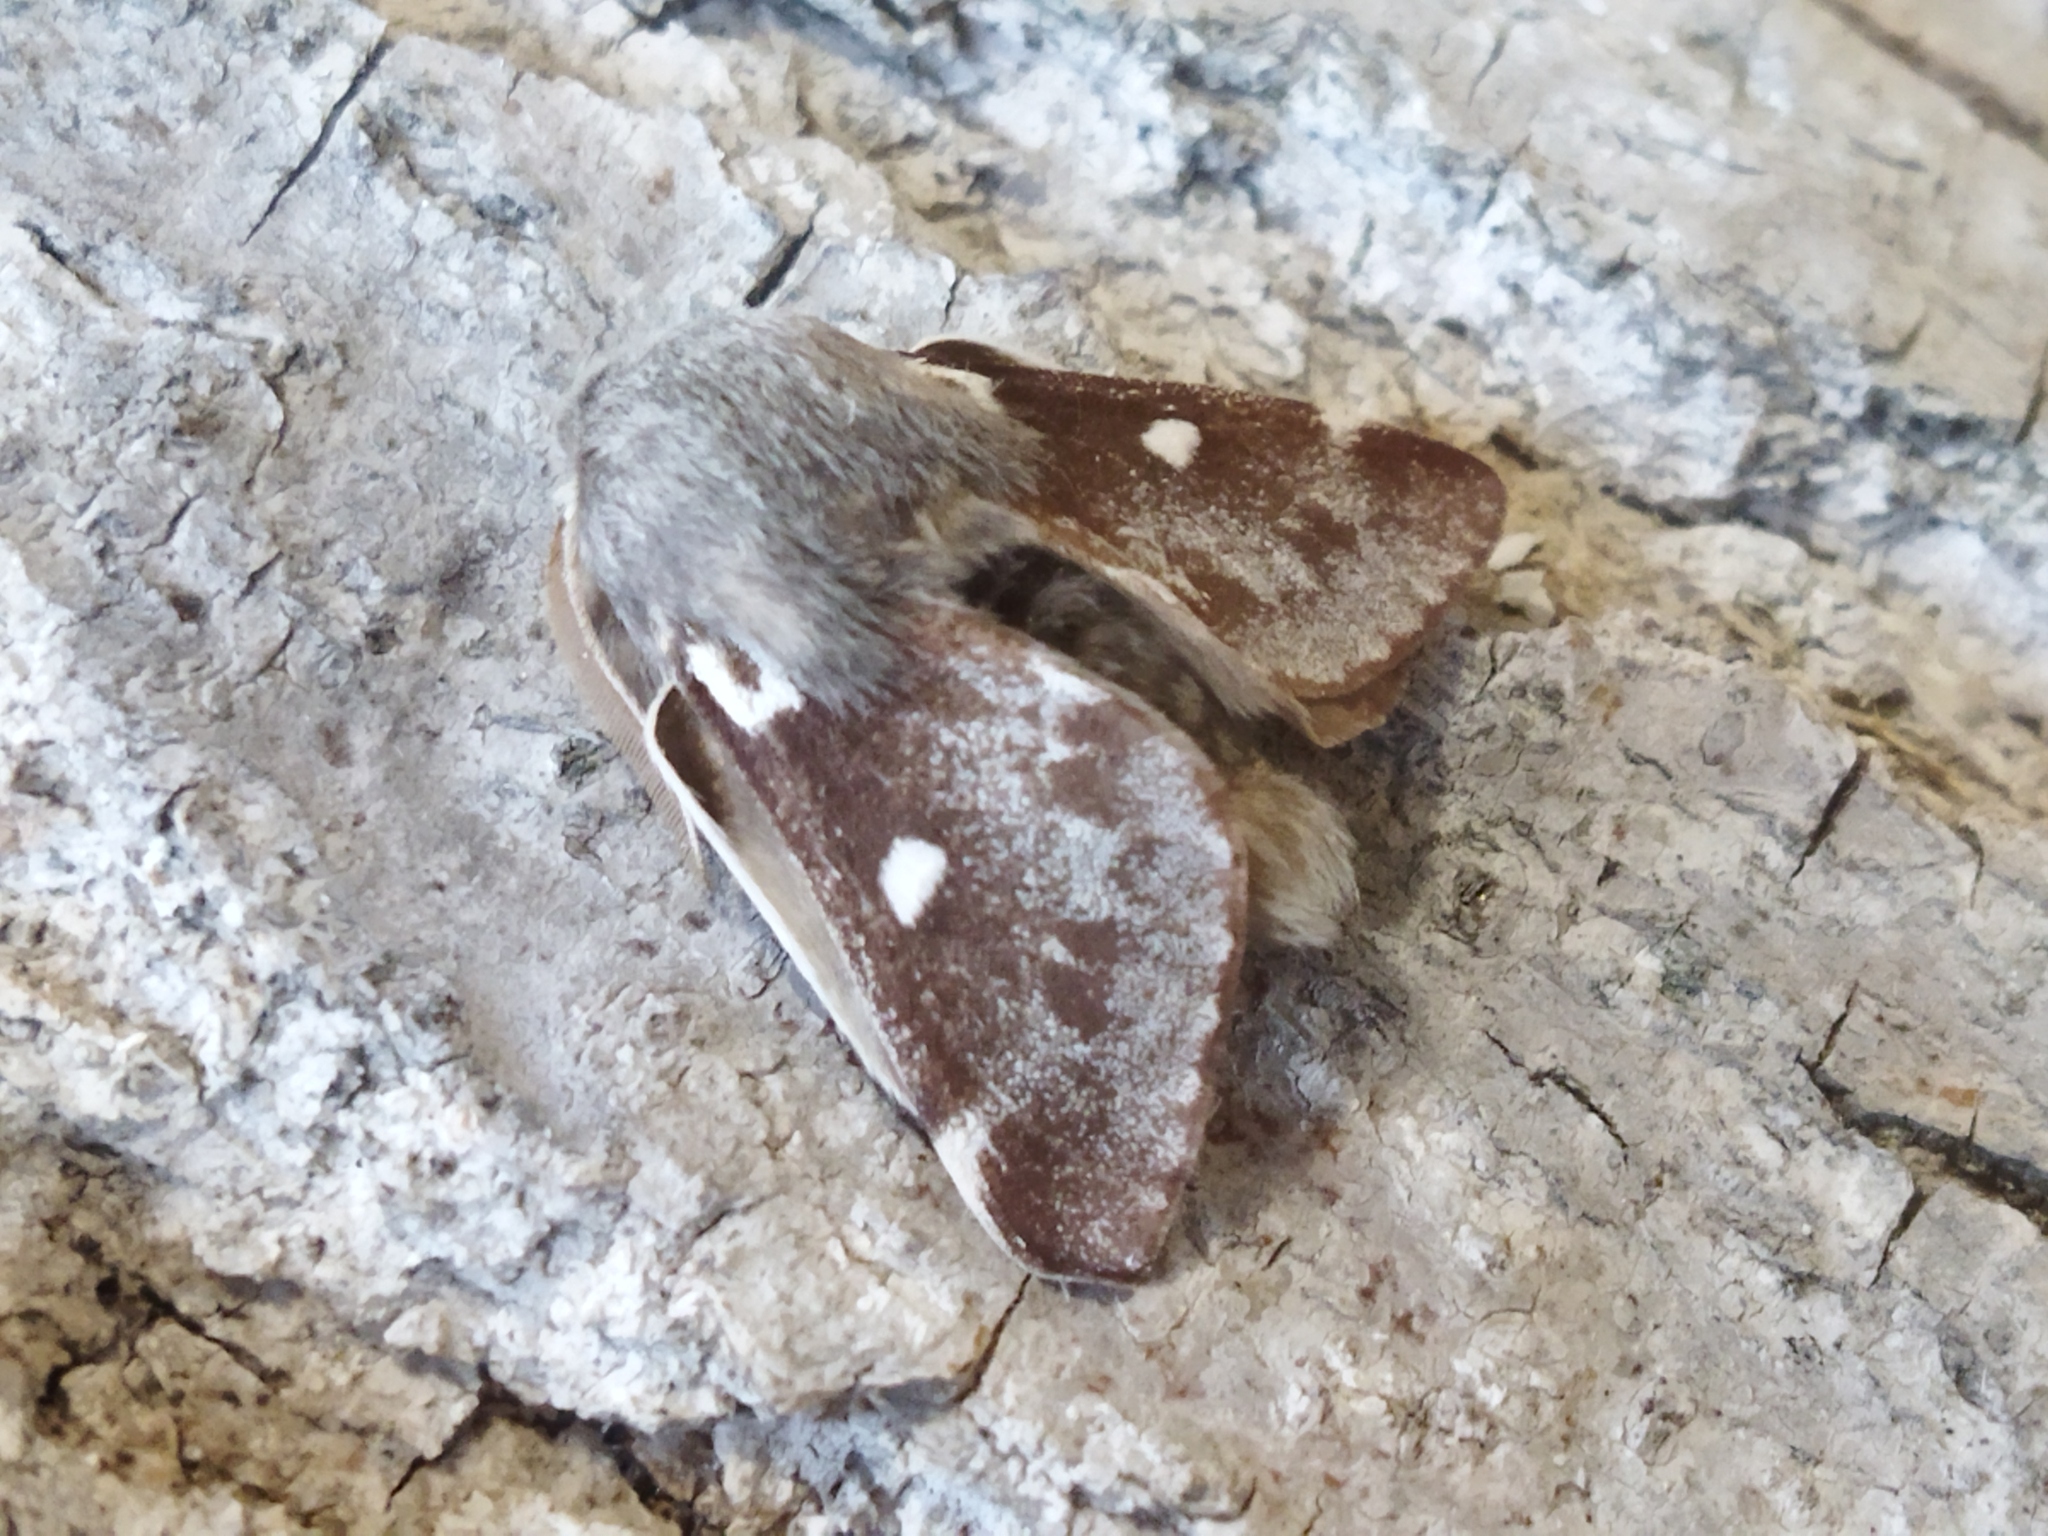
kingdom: Animalia
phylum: Arthropoda
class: Insecta
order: Lepidoptera
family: Lasiocampidae
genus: Eriogaster
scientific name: Eriogaster lanestris
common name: Small eggar
